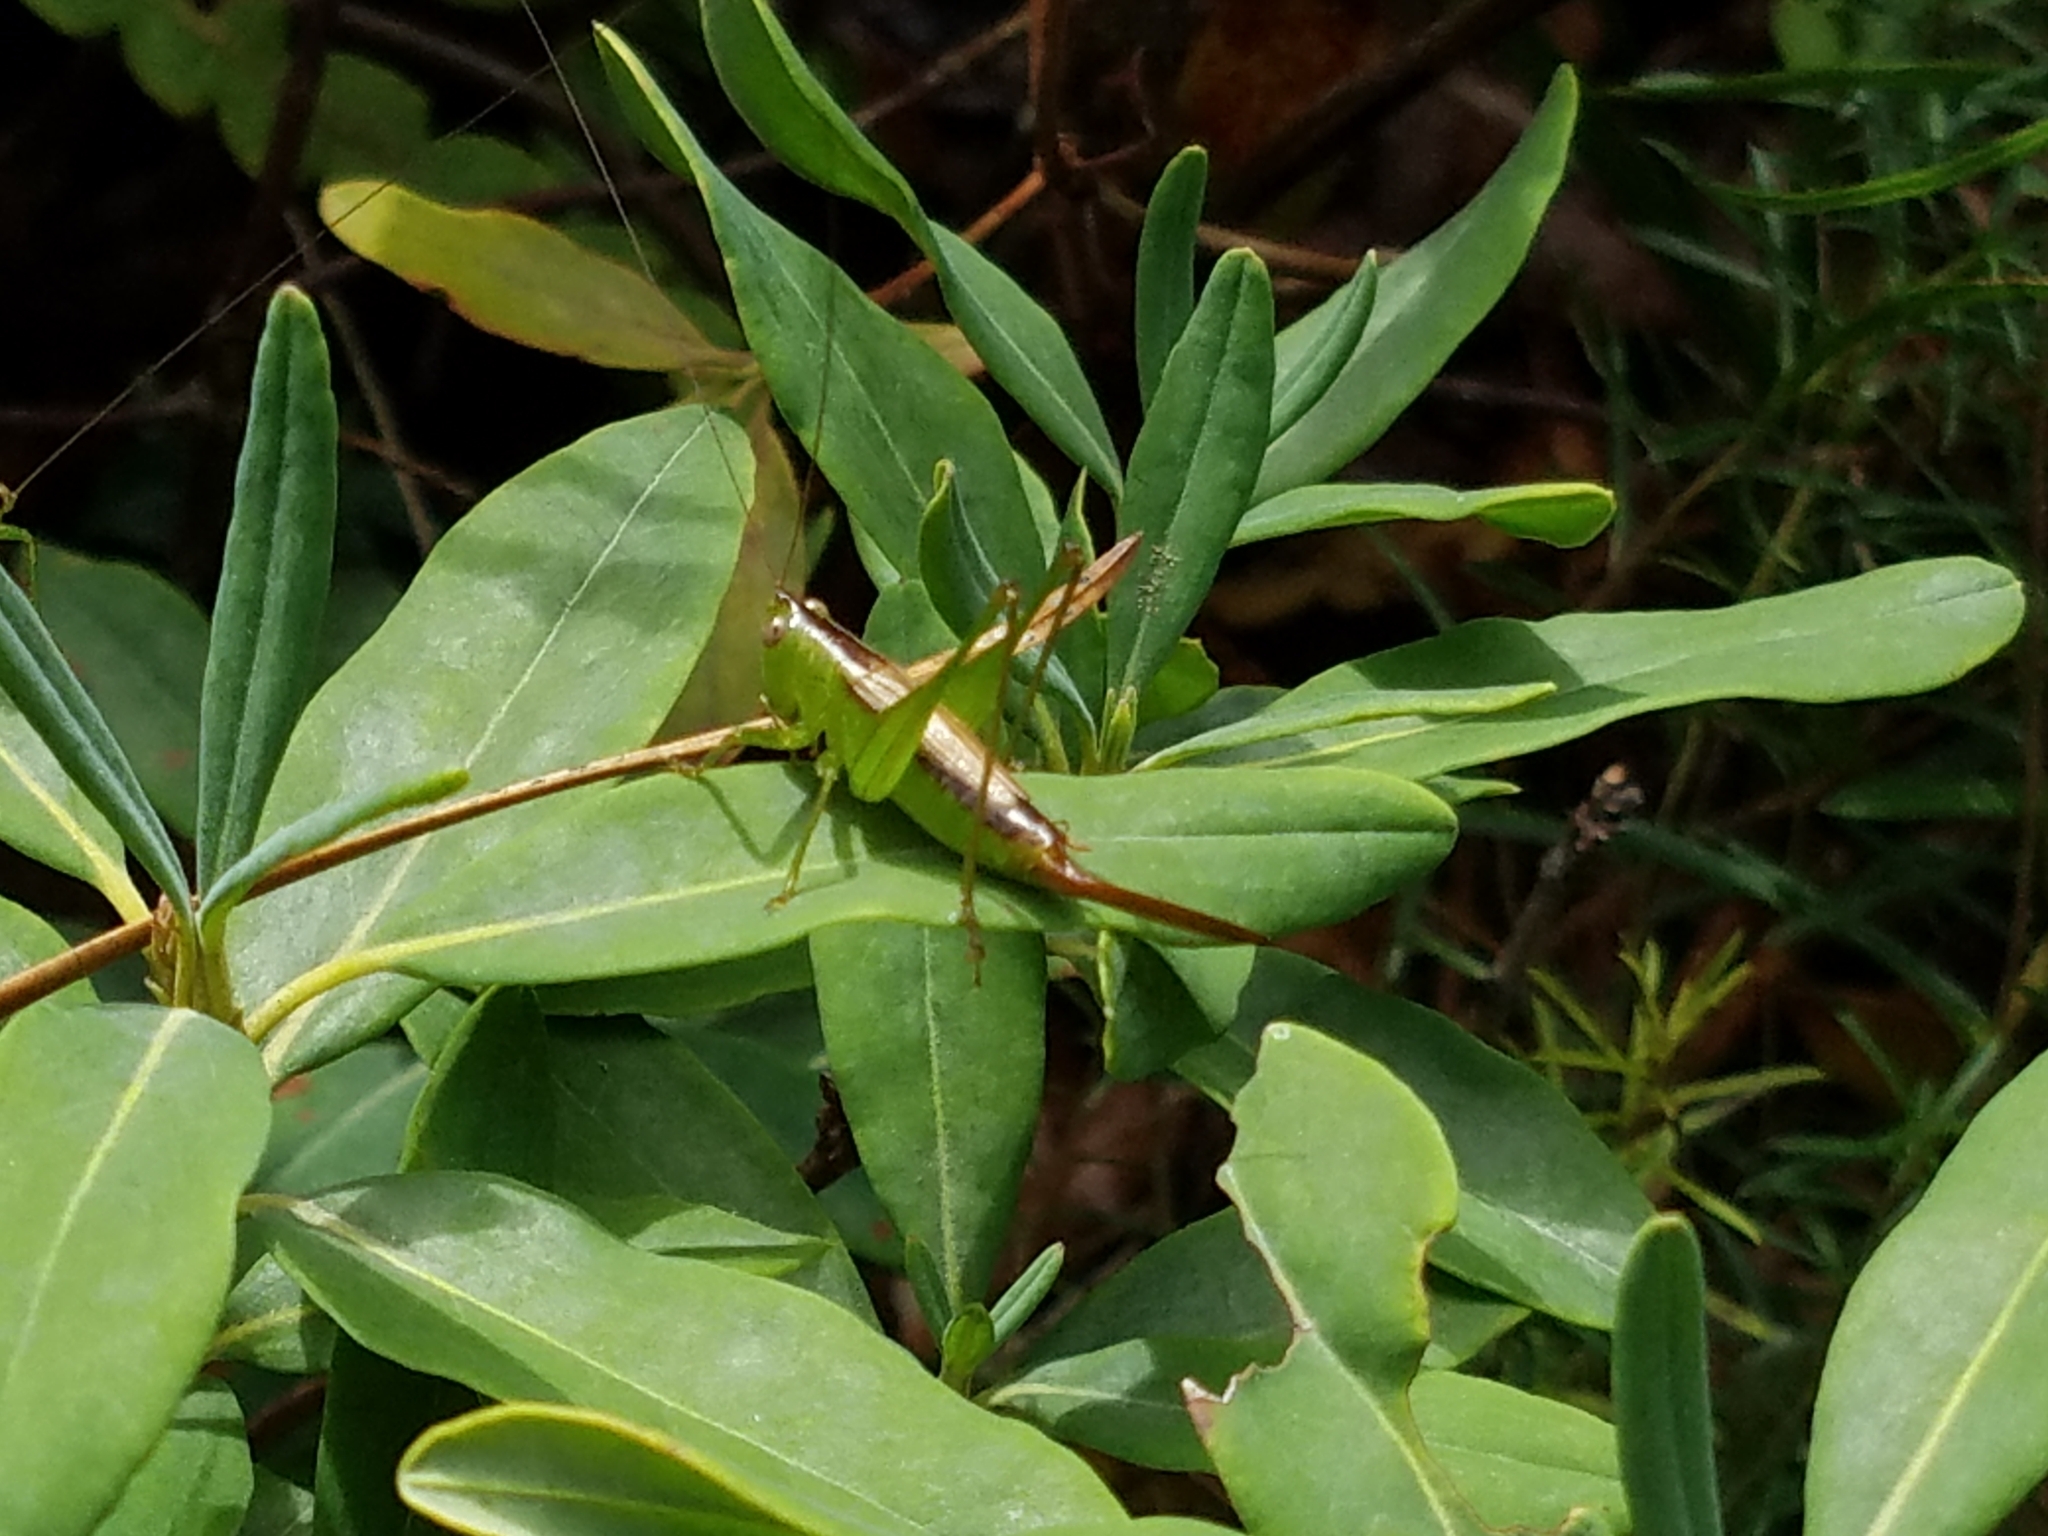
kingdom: Animalia
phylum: Arthropoda
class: Insecta
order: Orthoptera
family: Tettigoniidae
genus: Conocephalus
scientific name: Conocephalus brevipennis
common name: Short-winged meadow katydid
